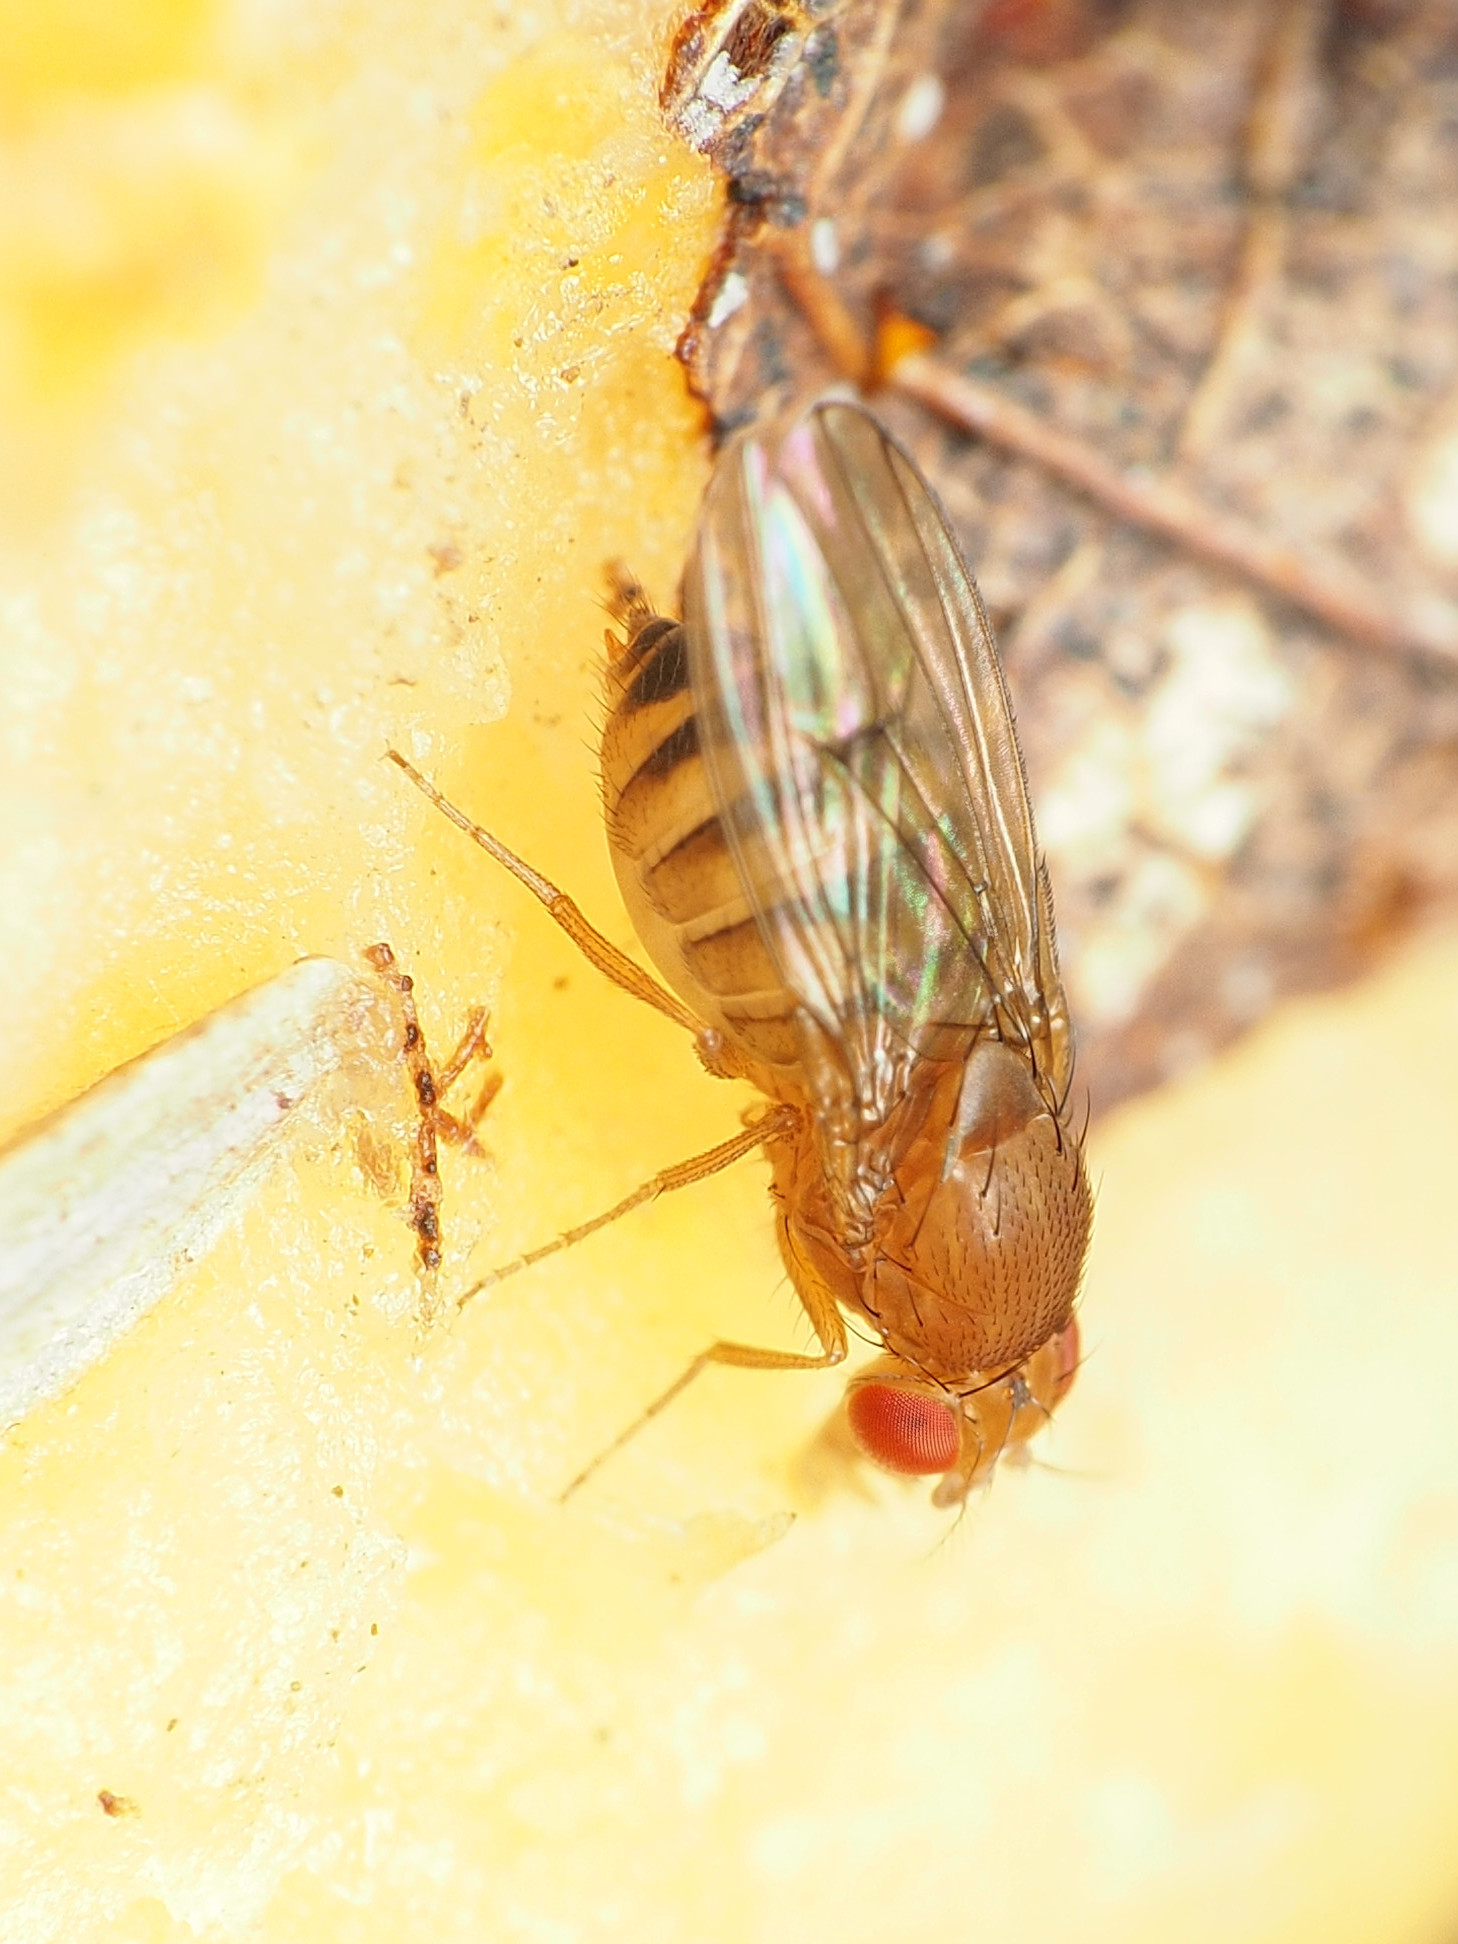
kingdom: Animalia
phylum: Arthropoda
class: Insecta
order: Diptera
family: Drosophilidae
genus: Drosophila
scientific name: Drosophila immigrans
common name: Pomace fly
